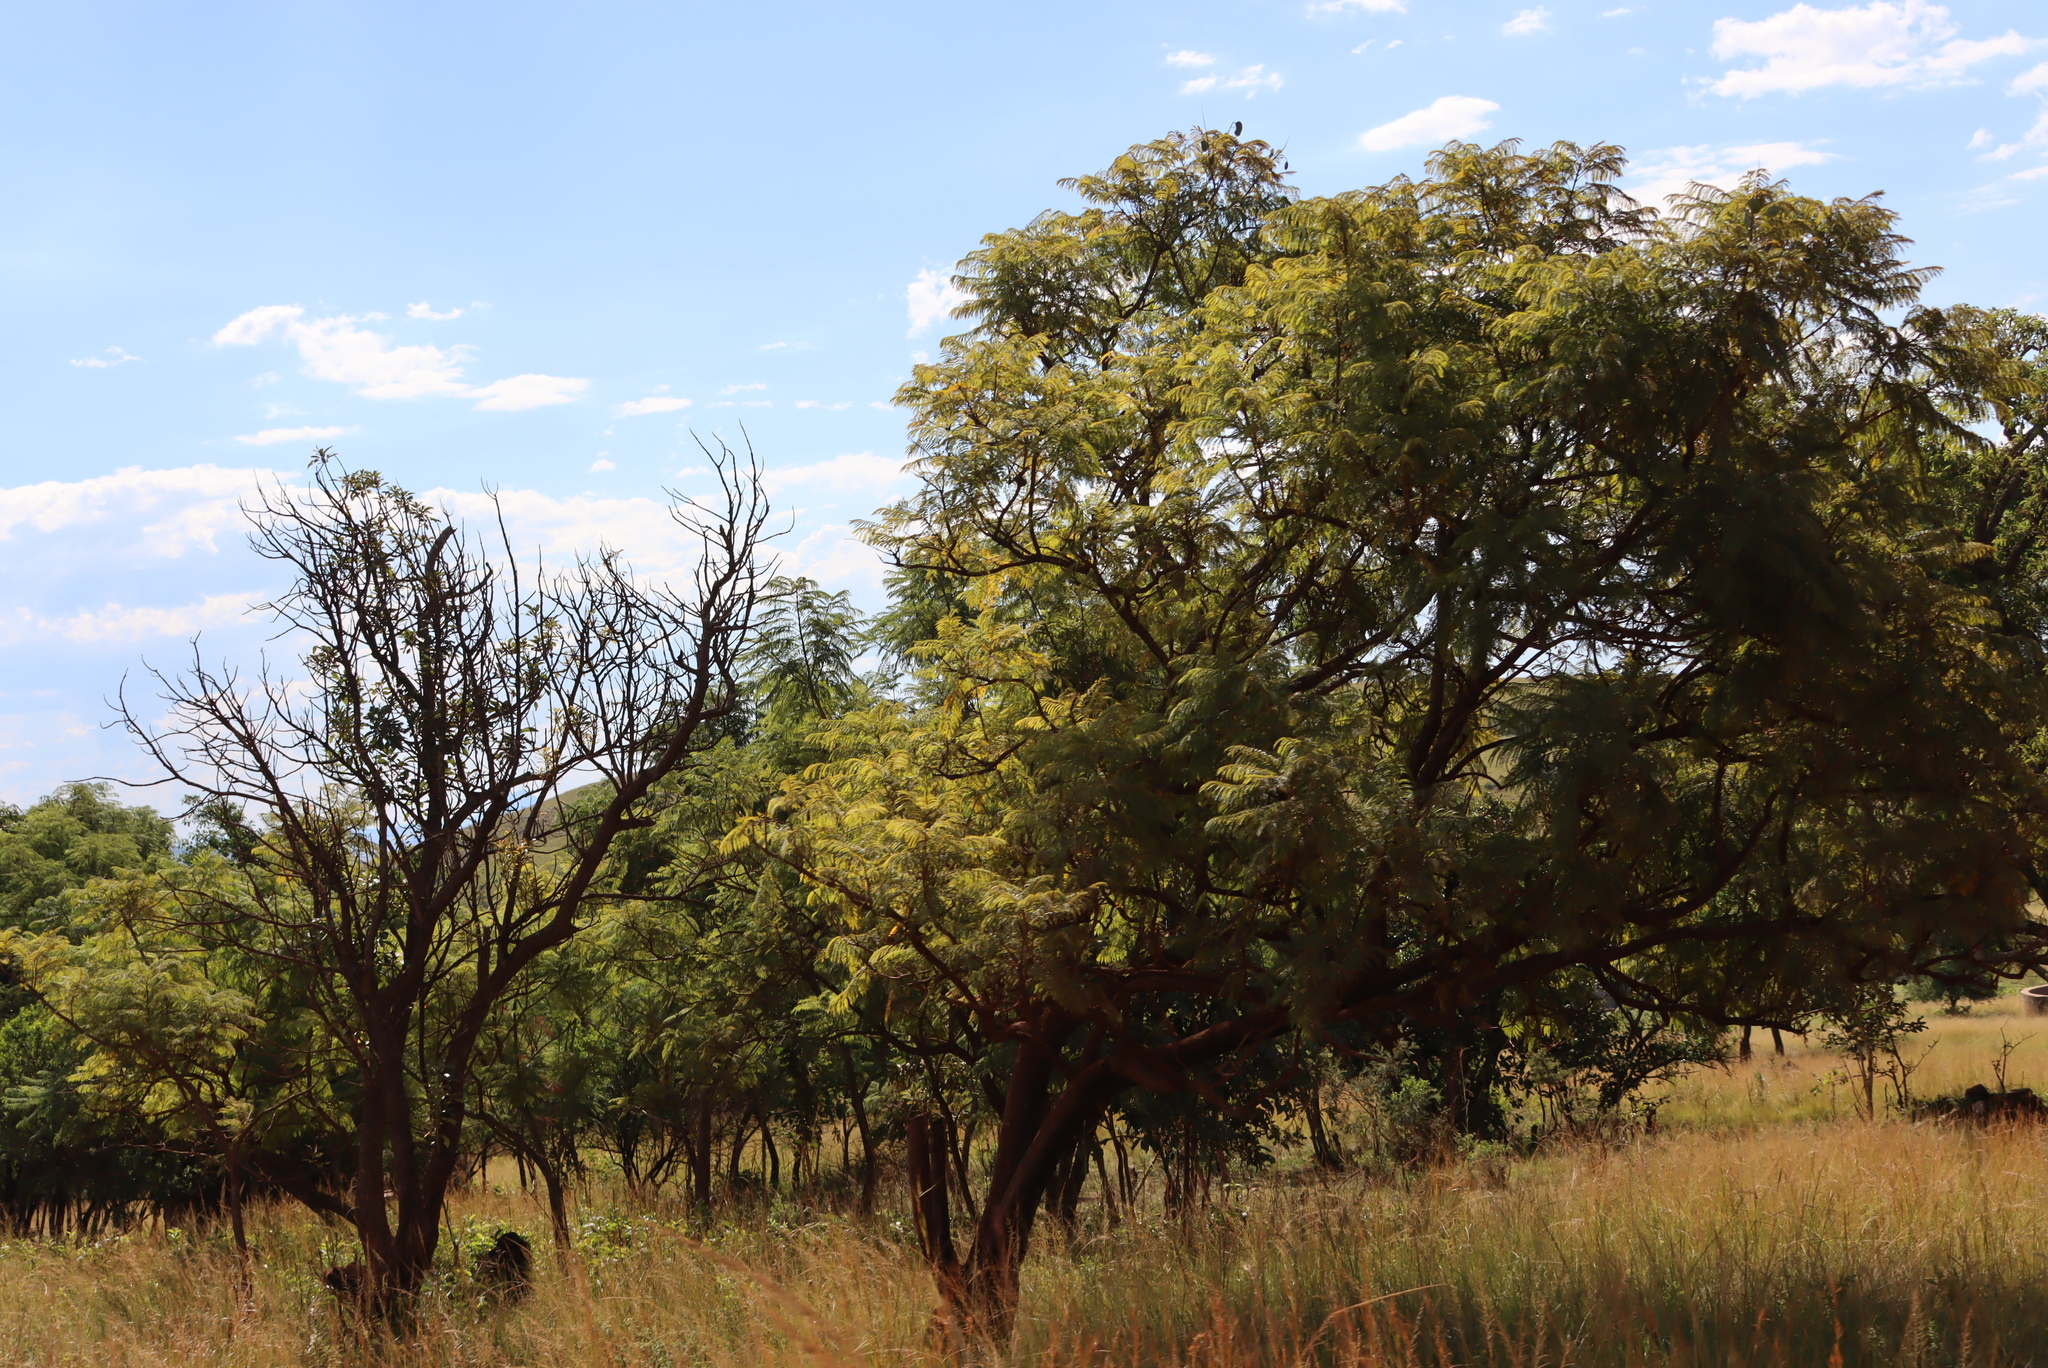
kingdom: Plantae
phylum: Tracheophyta
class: Magnoliopsida
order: Lamiales
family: Bignoniaceae
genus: Jacaranda
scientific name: Jacaranda mimosifolia
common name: Black poui
